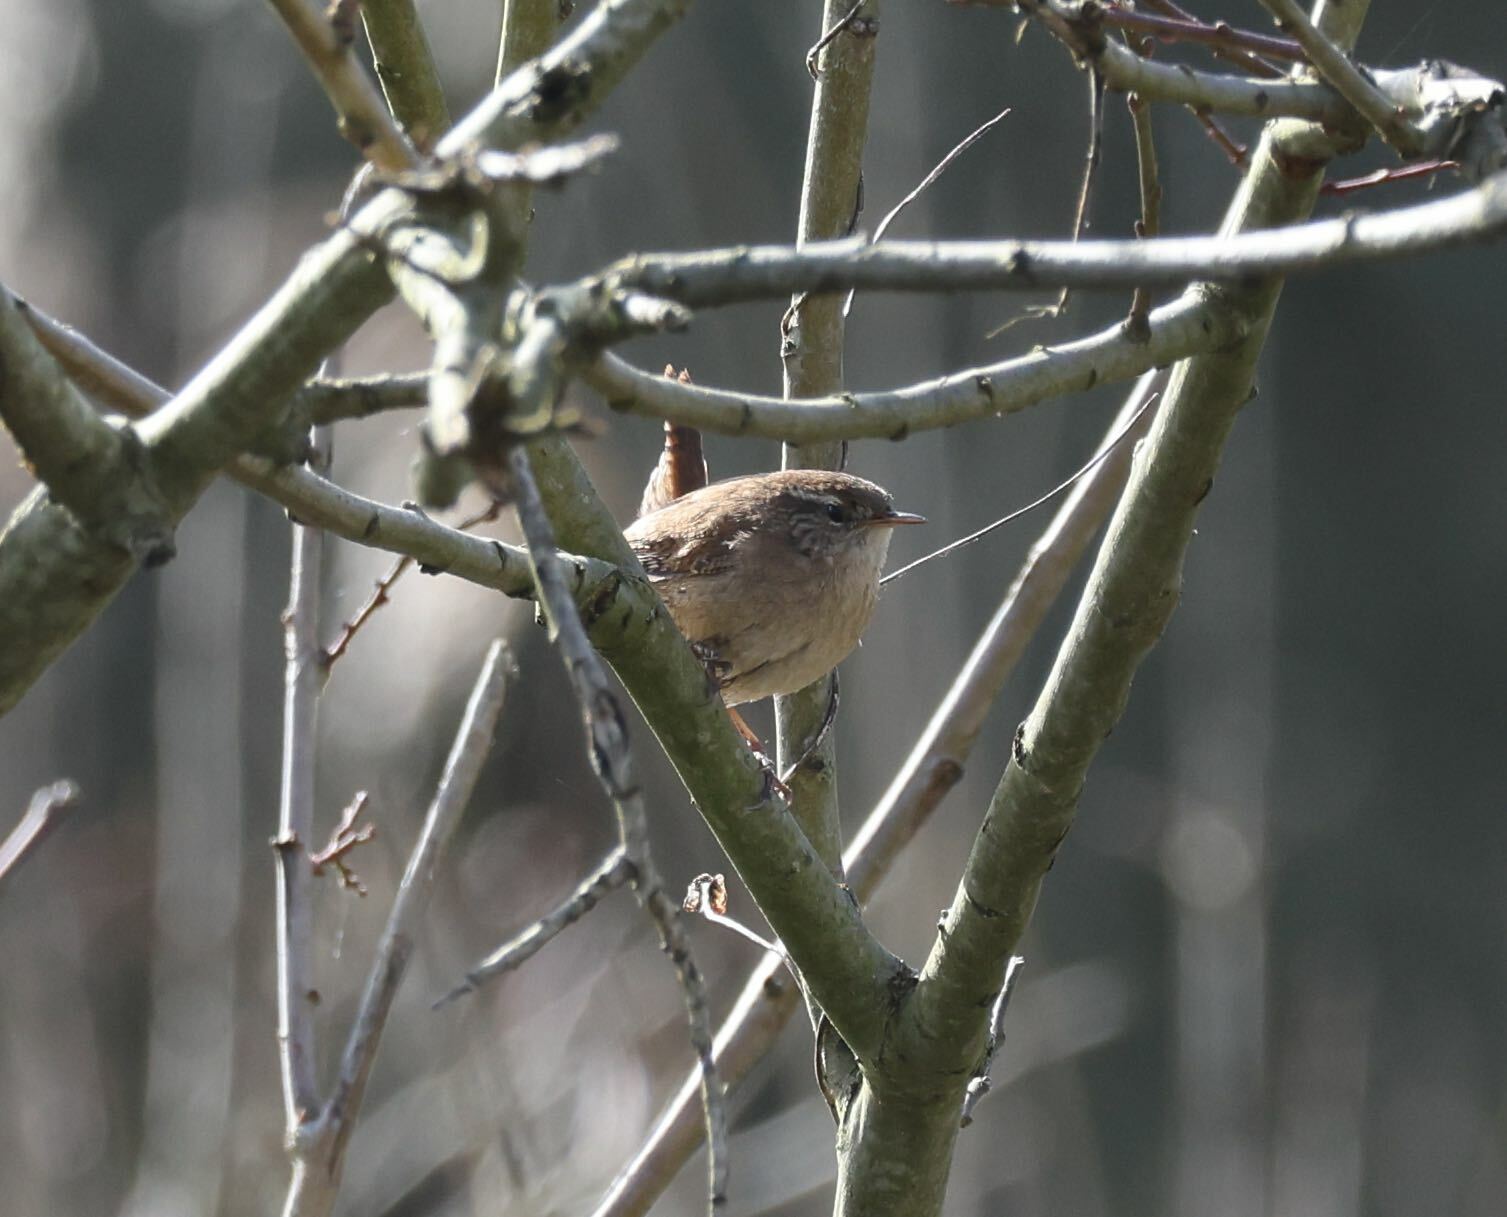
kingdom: Animalia
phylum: Chordata
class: Aves
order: Passeriformes
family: Troglodytidae
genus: Troglodytes
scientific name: Troglodytes troglodytes
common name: Eurasian wren
